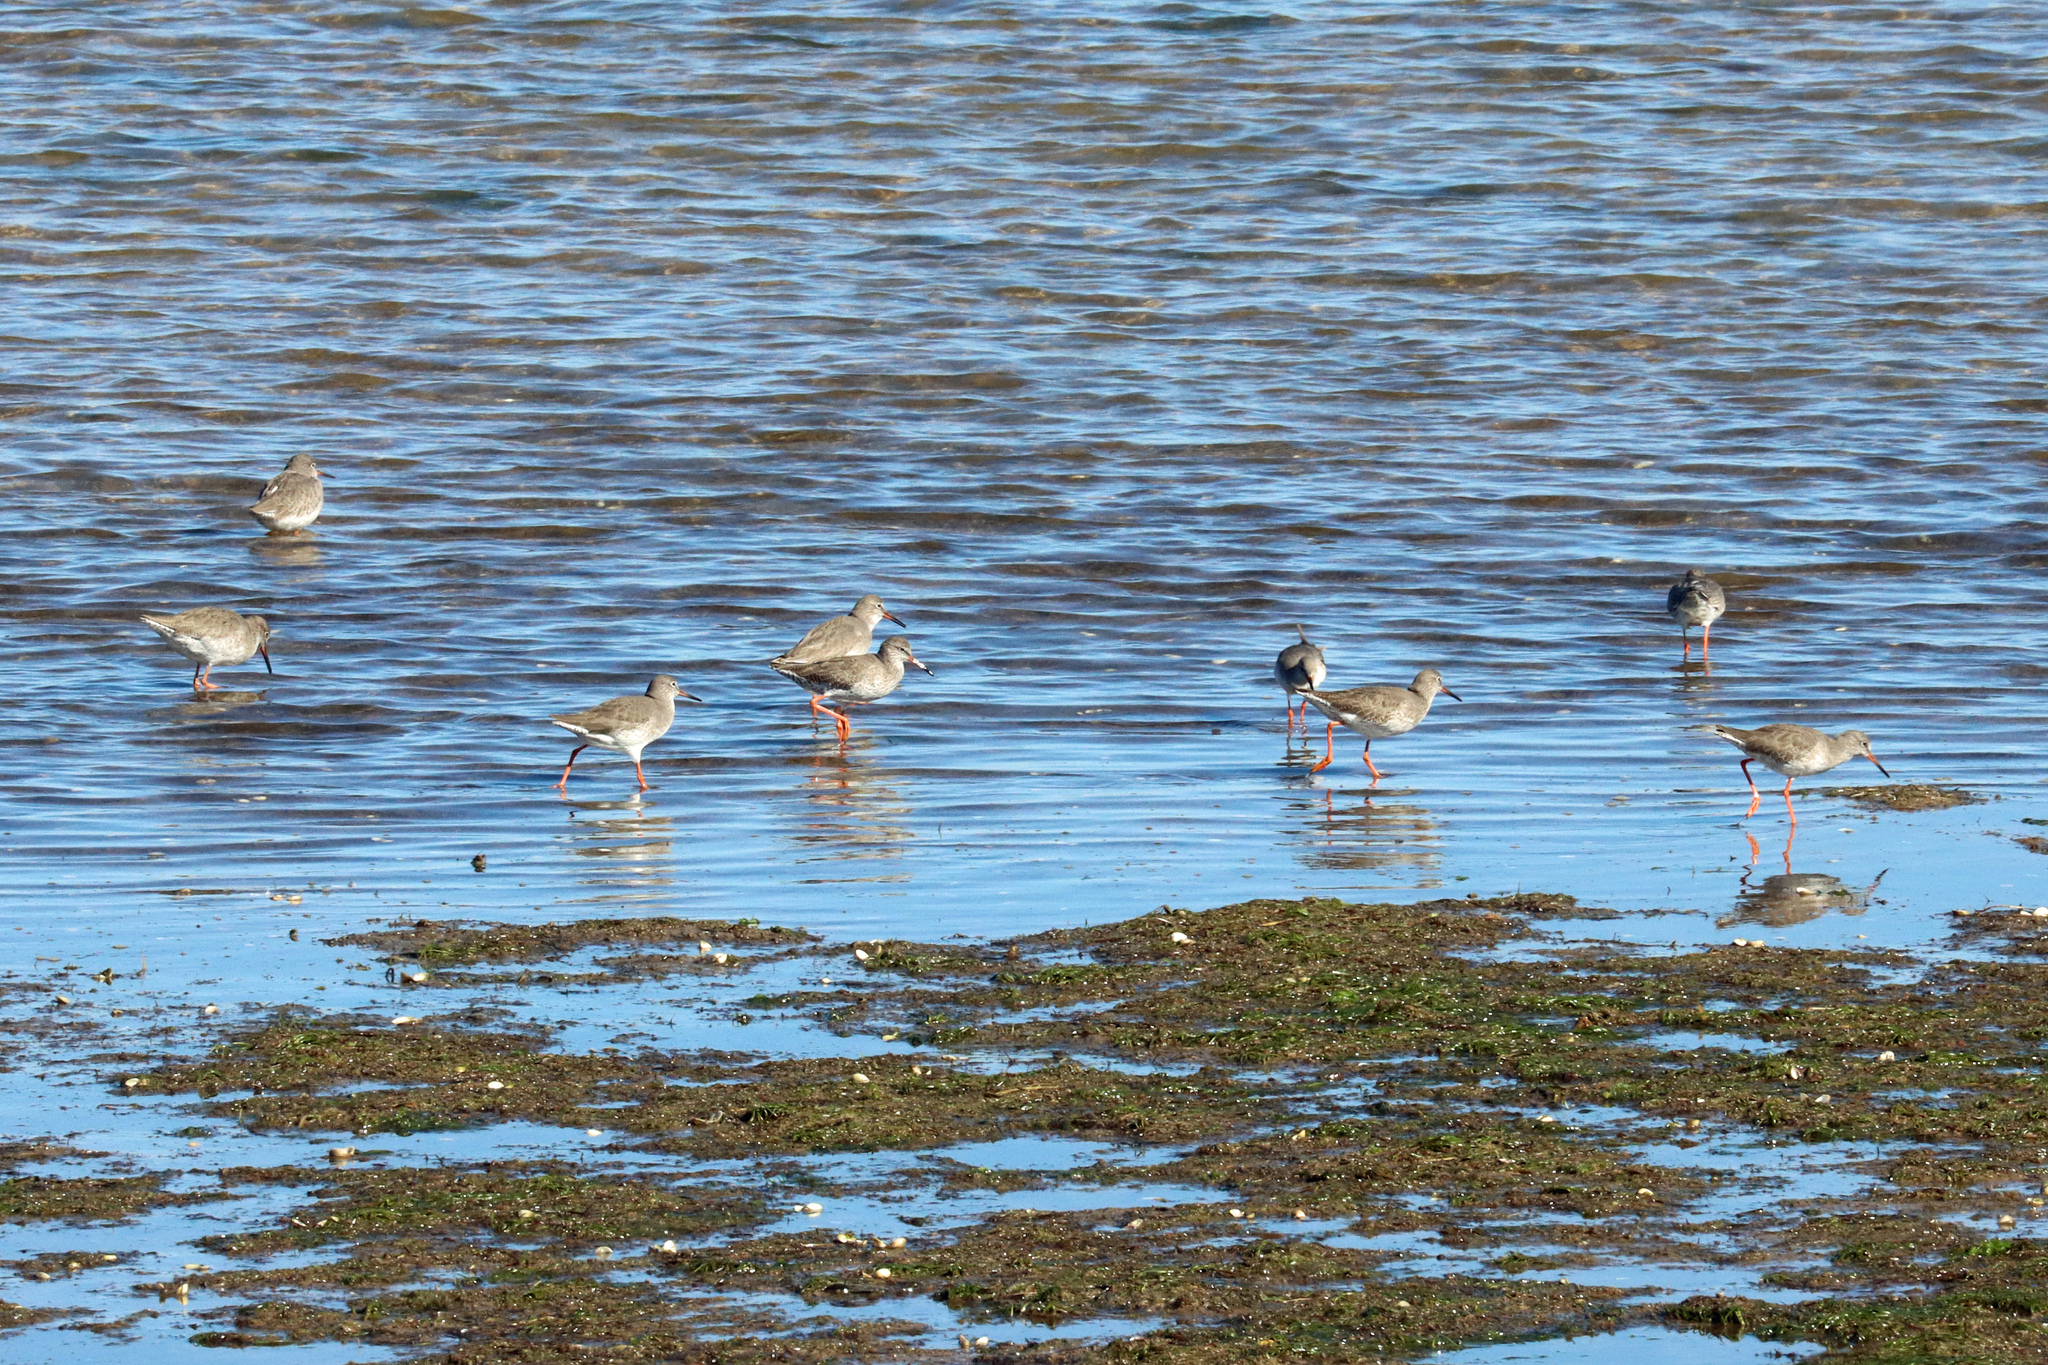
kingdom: Animalia
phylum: Chordata
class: Aves
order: Charadriiformes
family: Scolopacidae
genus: Tringa
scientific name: Tringa totanus
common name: Common redshank
